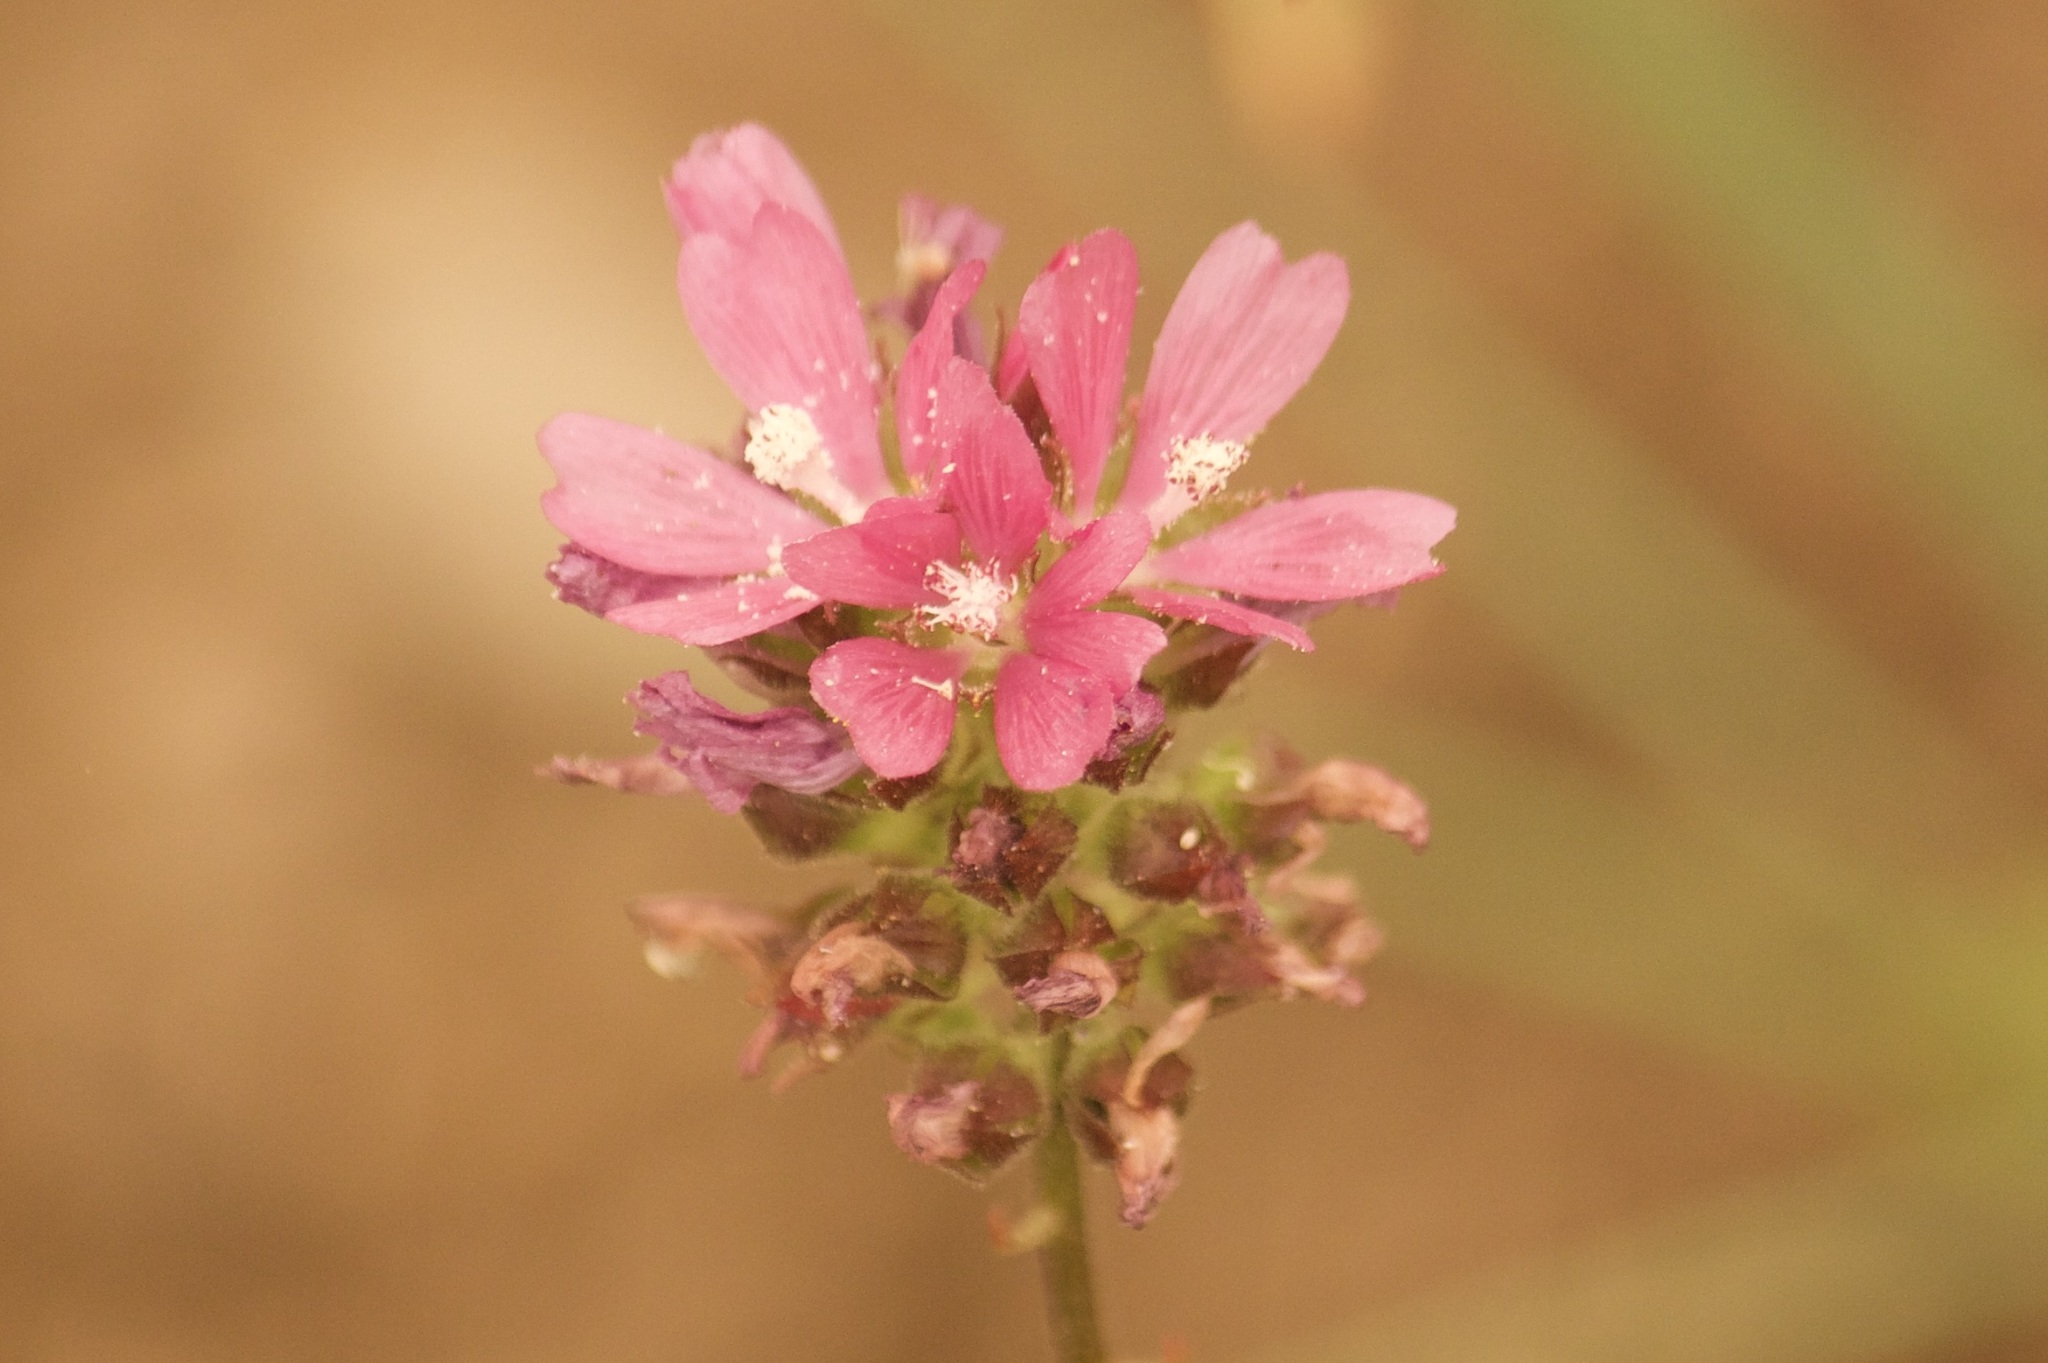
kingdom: Plantae
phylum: Tracheophyta
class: Magnoliopsida
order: Malvales
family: Malvaceae
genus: Sidalcea
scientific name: Sidalcea oregana
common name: Oregon checker-mallow
